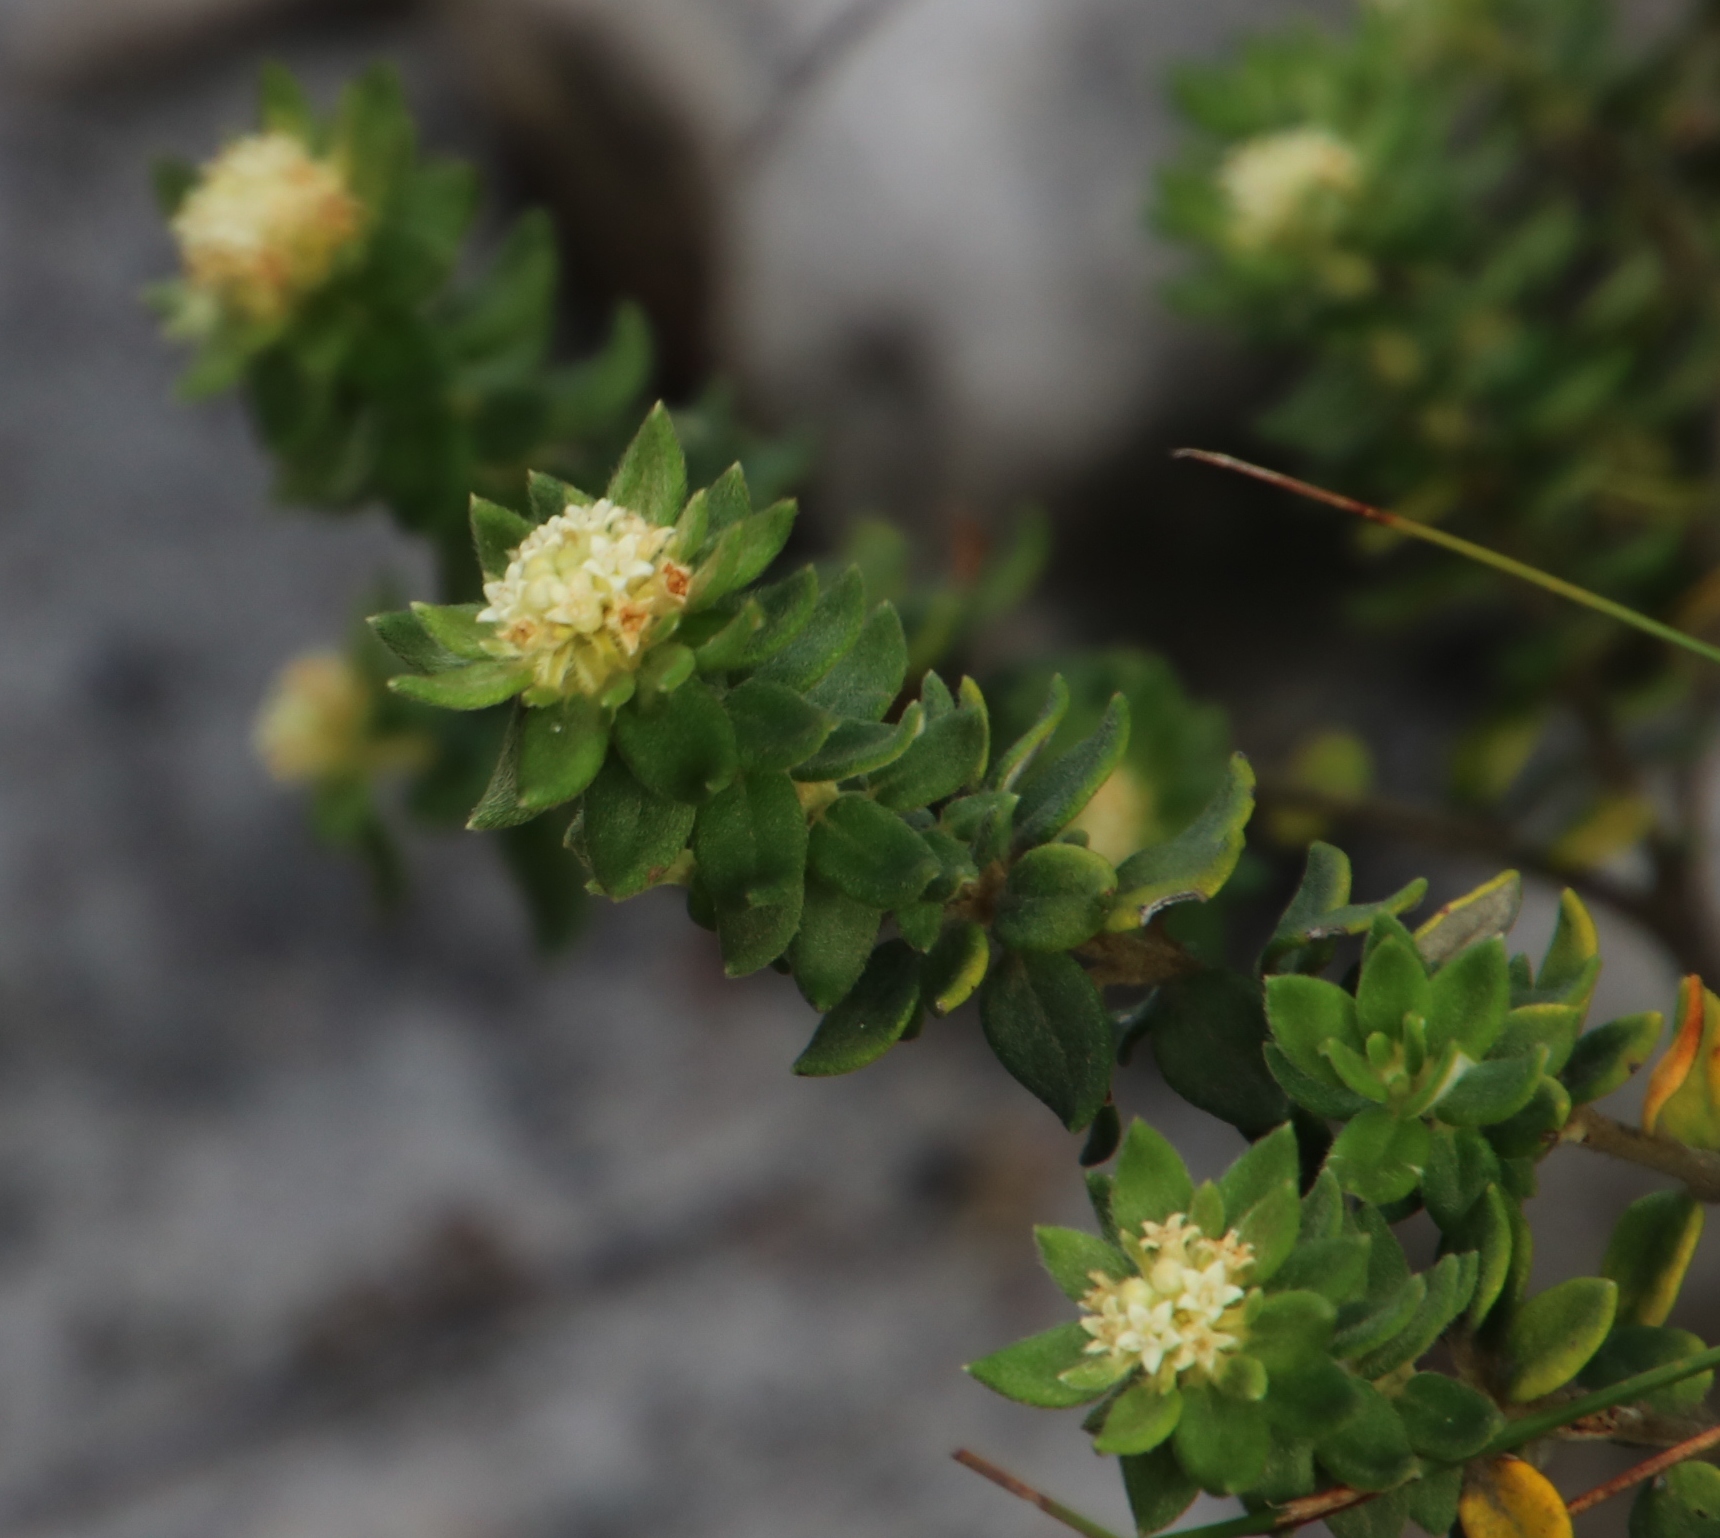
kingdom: Plantae
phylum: Tracheophyta
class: Magnoliopsida
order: Rosales
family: Rhamnaceae
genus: Phylica
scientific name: Phylica dioica
